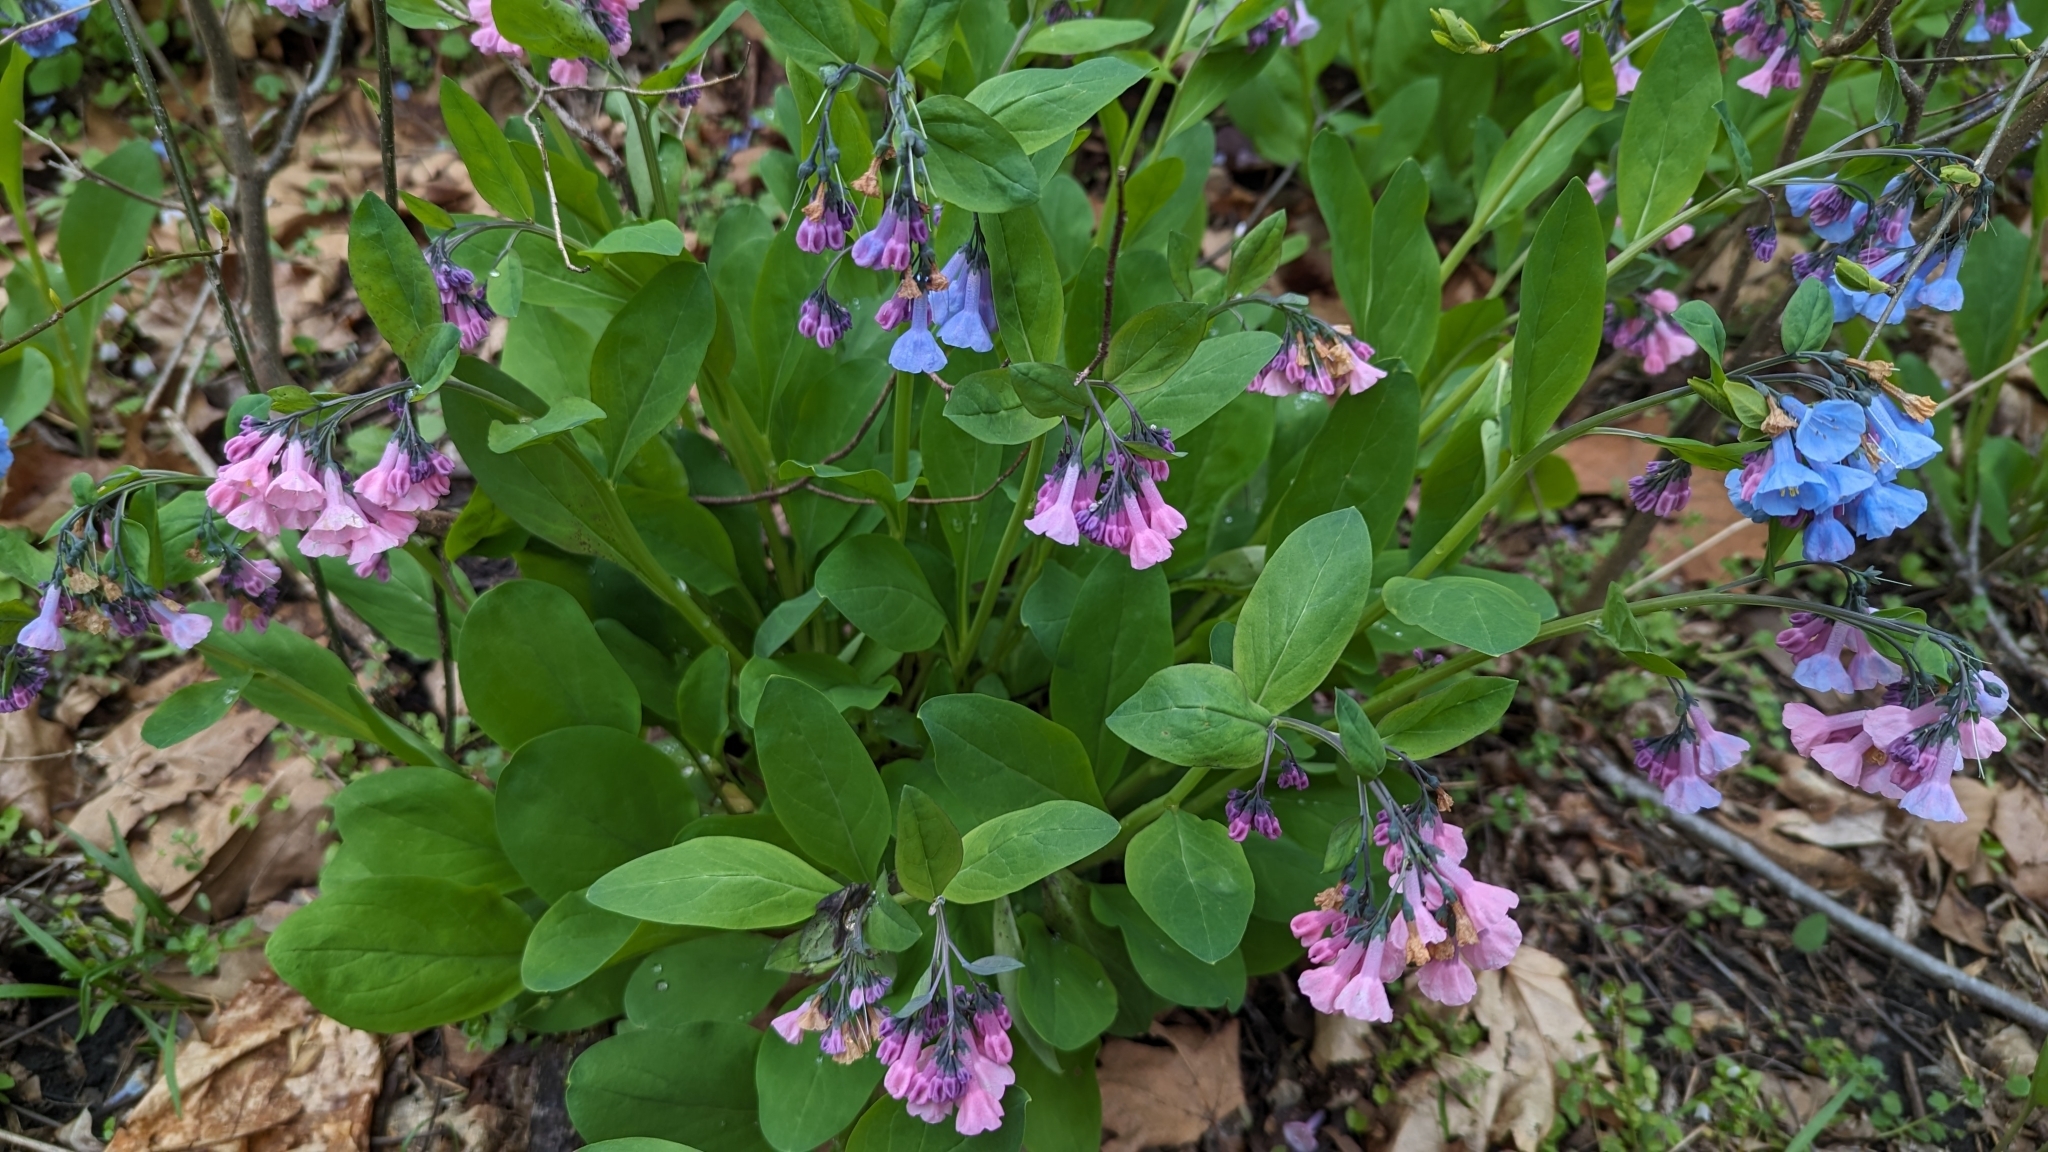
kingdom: Plantae
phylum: Tracheophyta
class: Magnoliopsida
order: Boraginales
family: Boraginaceae
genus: Mertensia
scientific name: Mertensia virginica
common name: Virginia bluebells
